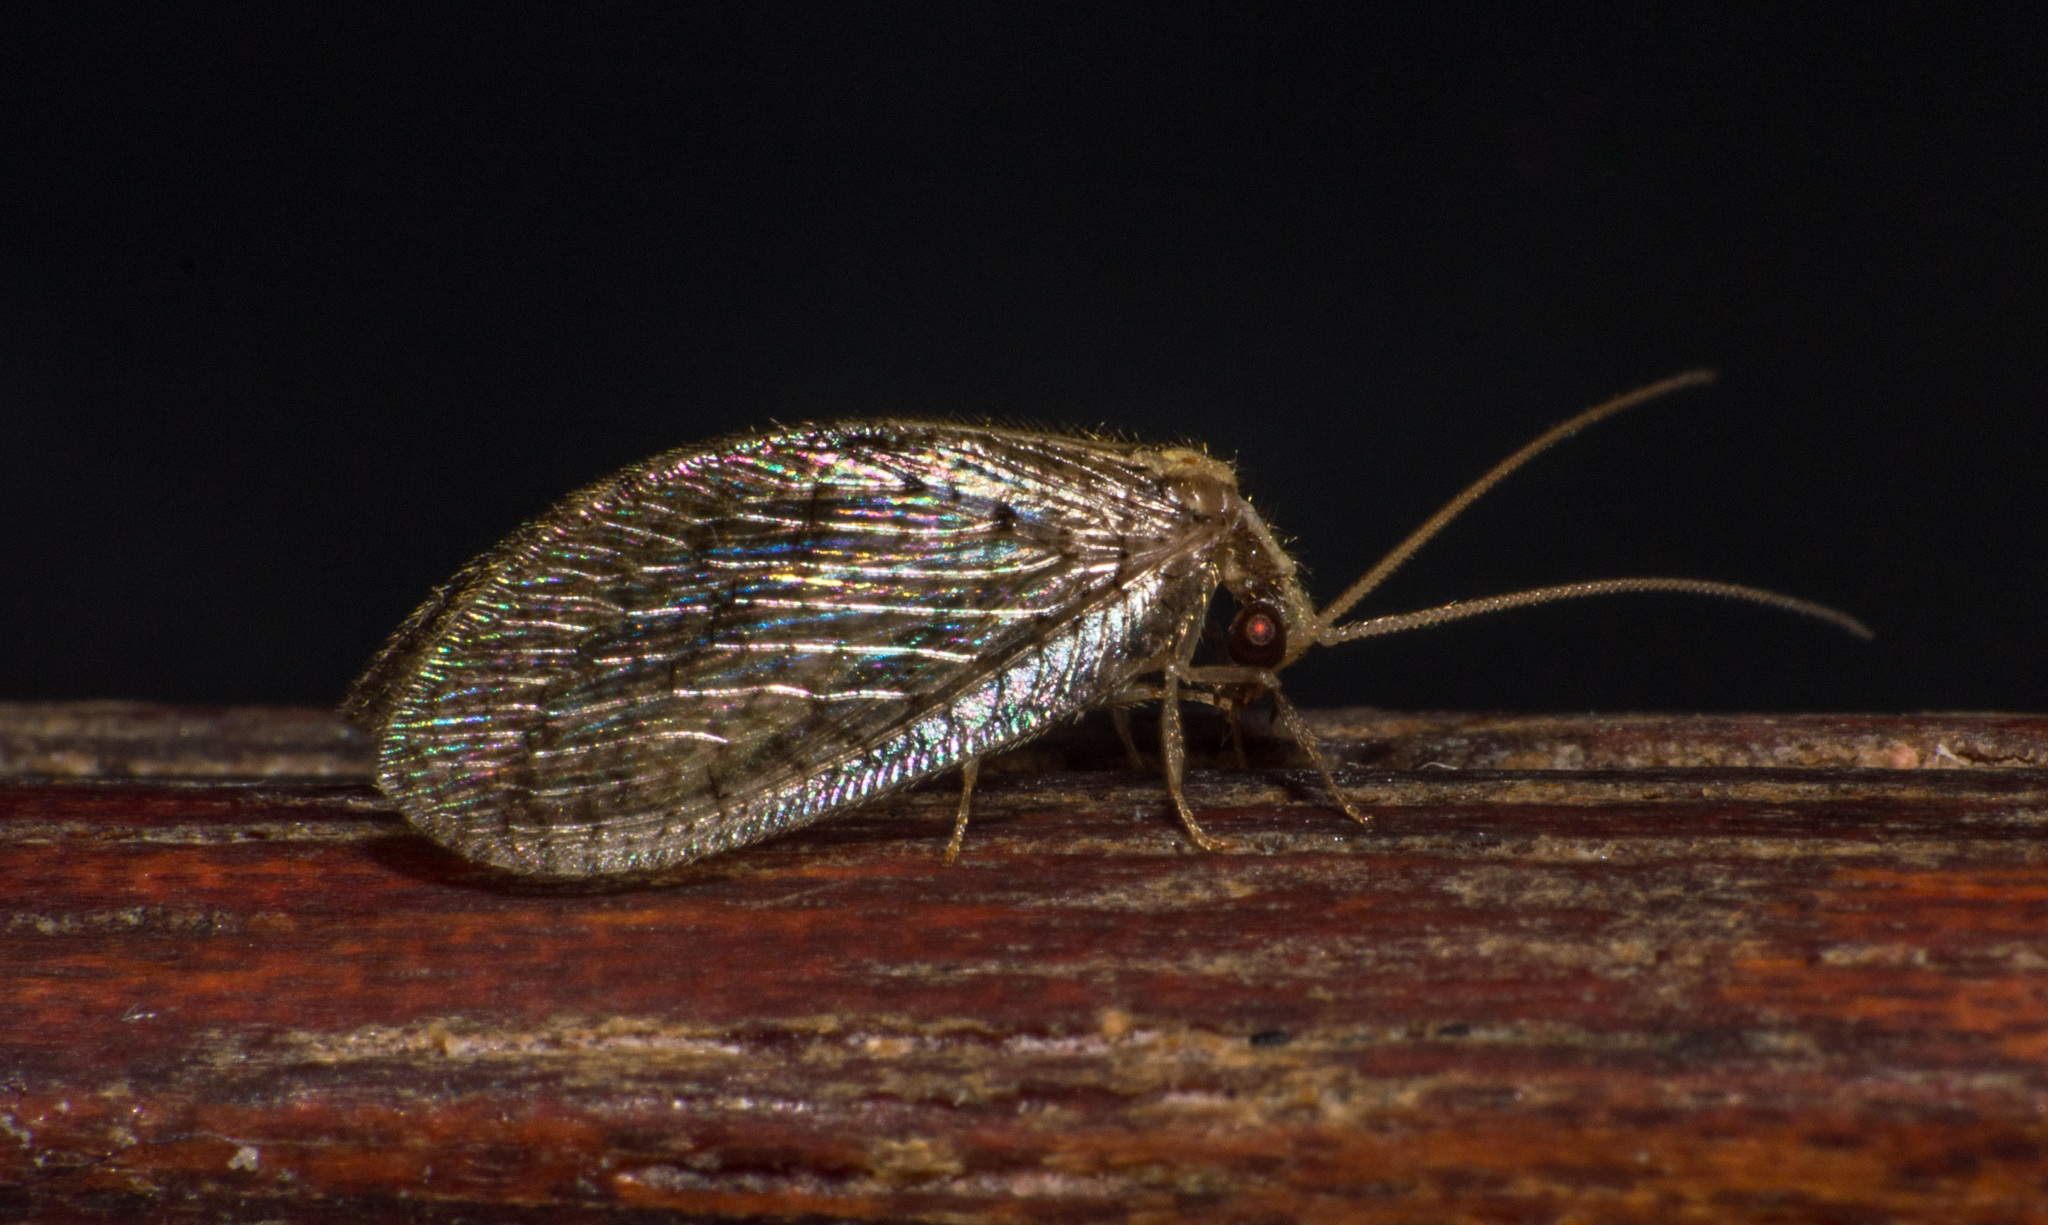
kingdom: Animalia
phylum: Arthropoda
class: Insecta
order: Neuroptera
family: Hemerobiidae
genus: Hemerobius
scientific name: Hemerobius bolivari
